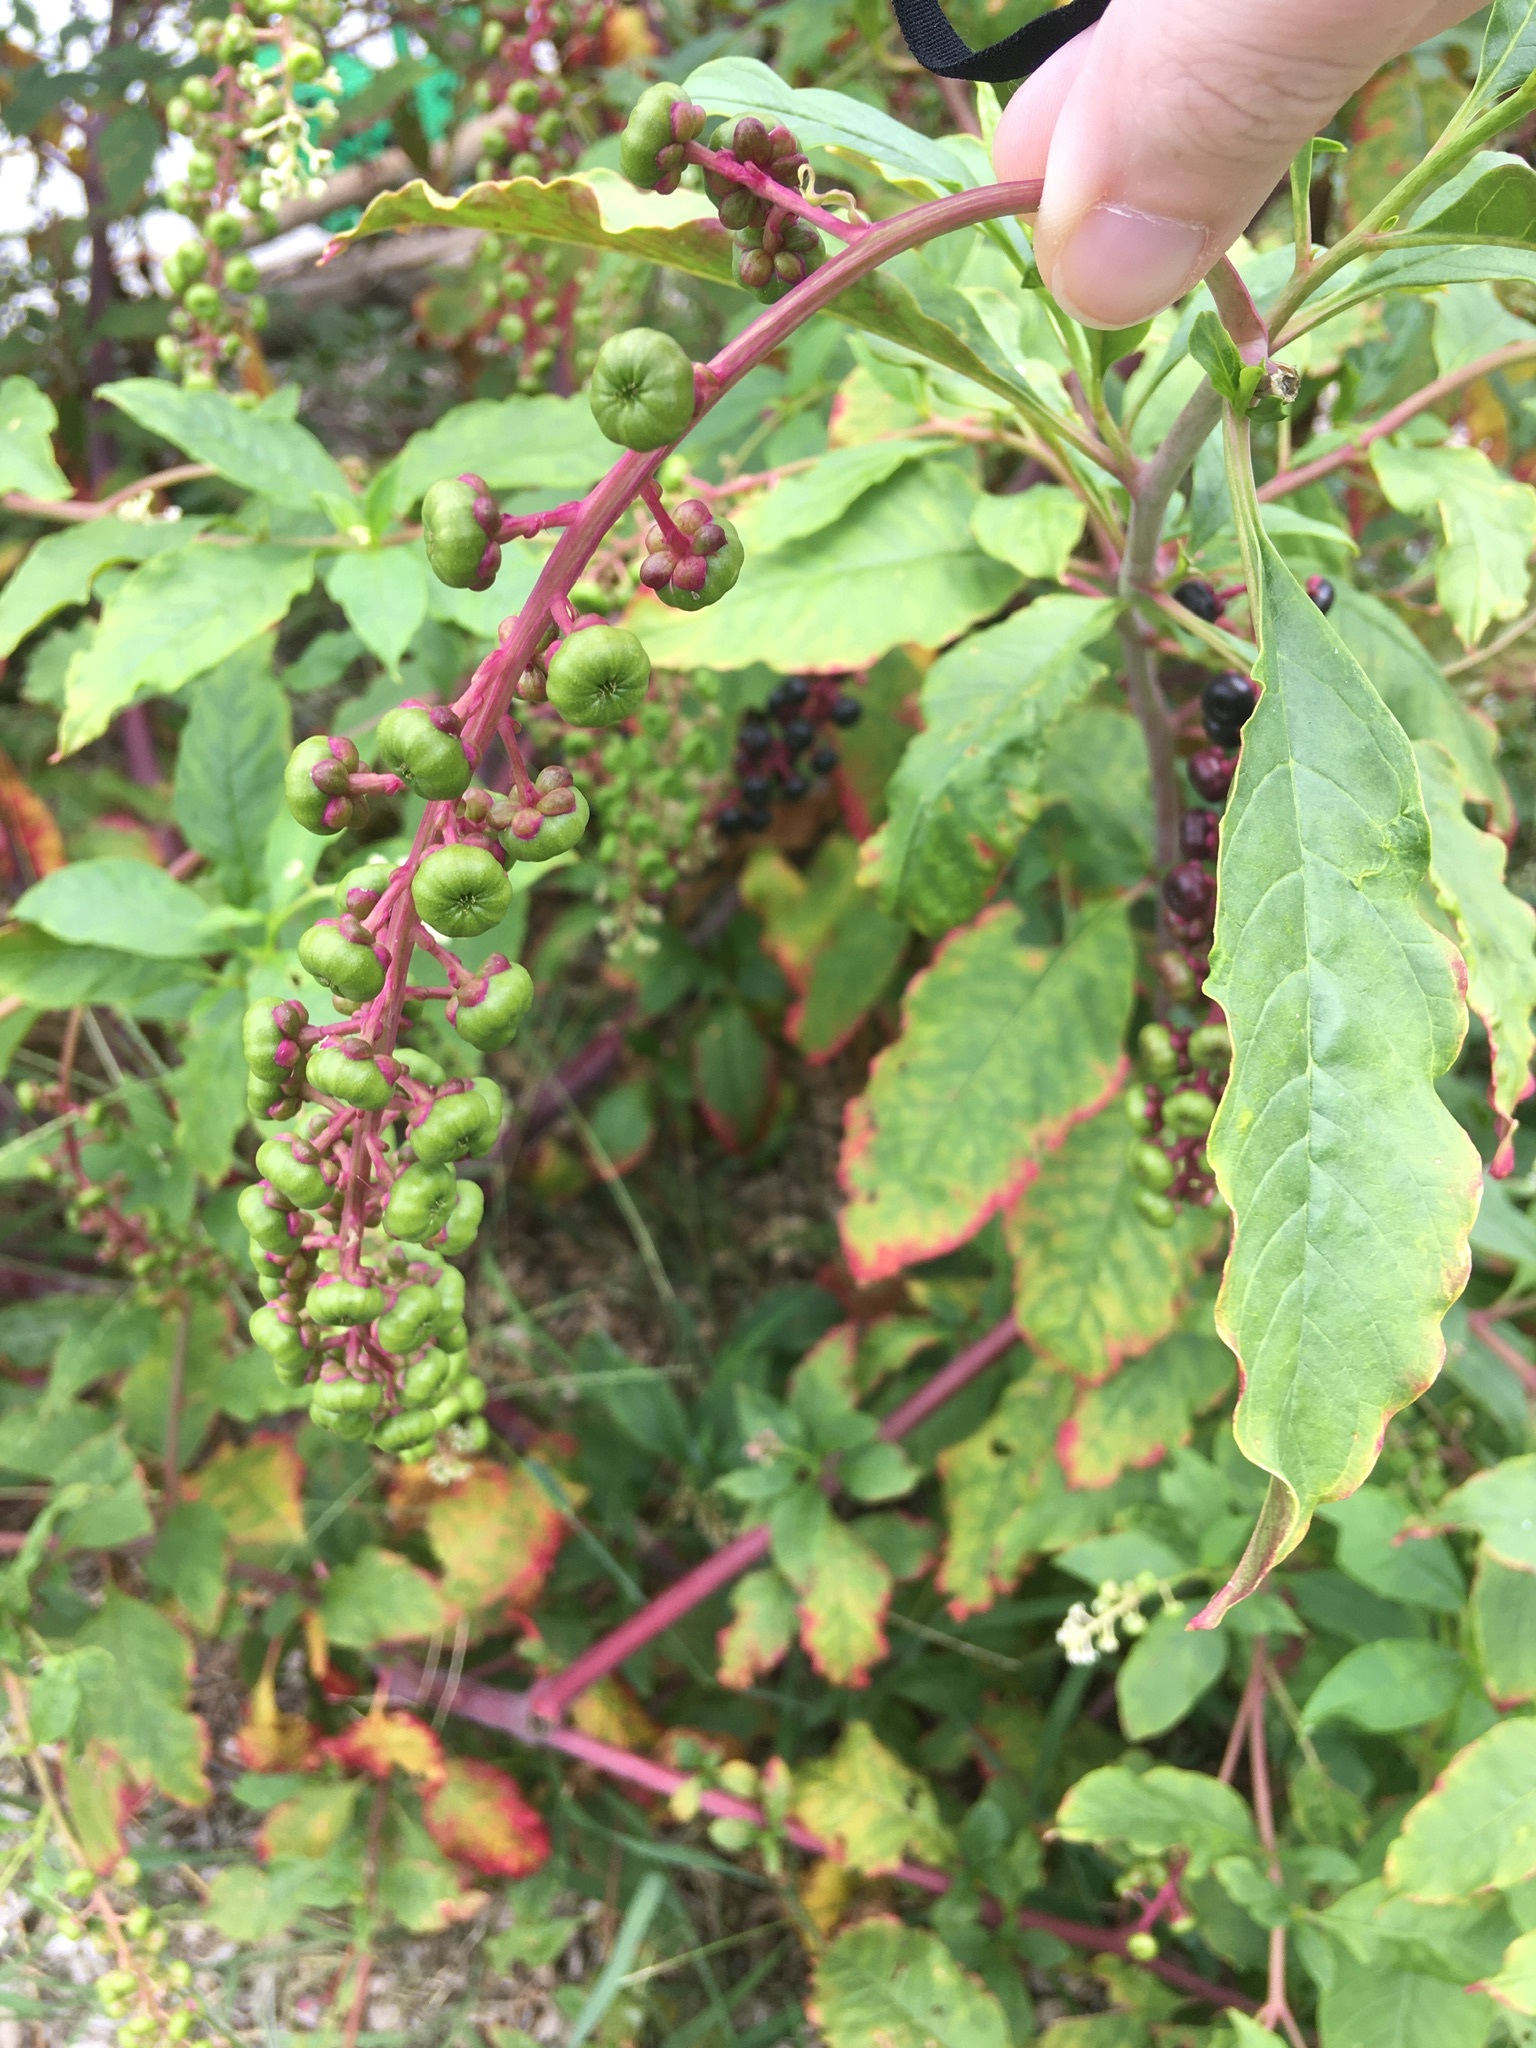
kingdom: Plantae
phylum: Tracheophyta
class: Magnoliopsida
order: Caryophyllales
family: Phytolaccaceae
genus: Phytolacca
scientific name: Phytolacca americana
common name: American pokeweed
